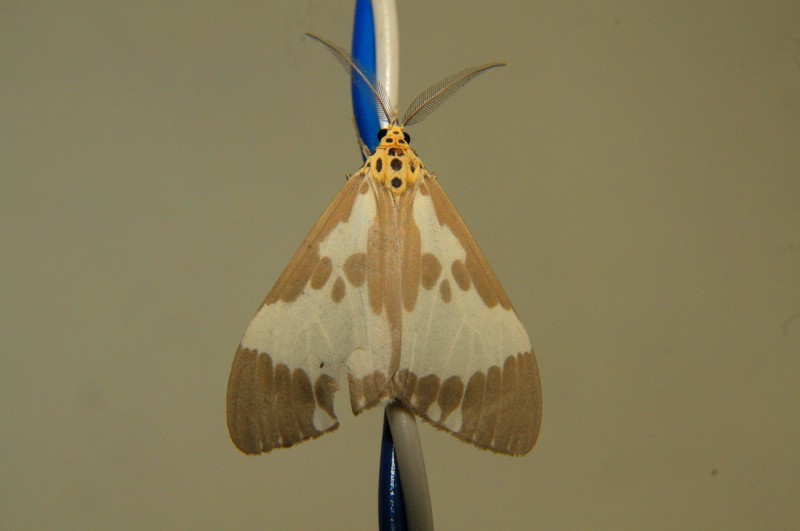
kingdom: Animalia
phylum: Arthropoda
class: Insecta
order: Lepidoptera
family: Erebidae
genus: Nyctemera
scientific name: Nyctemera arctata
